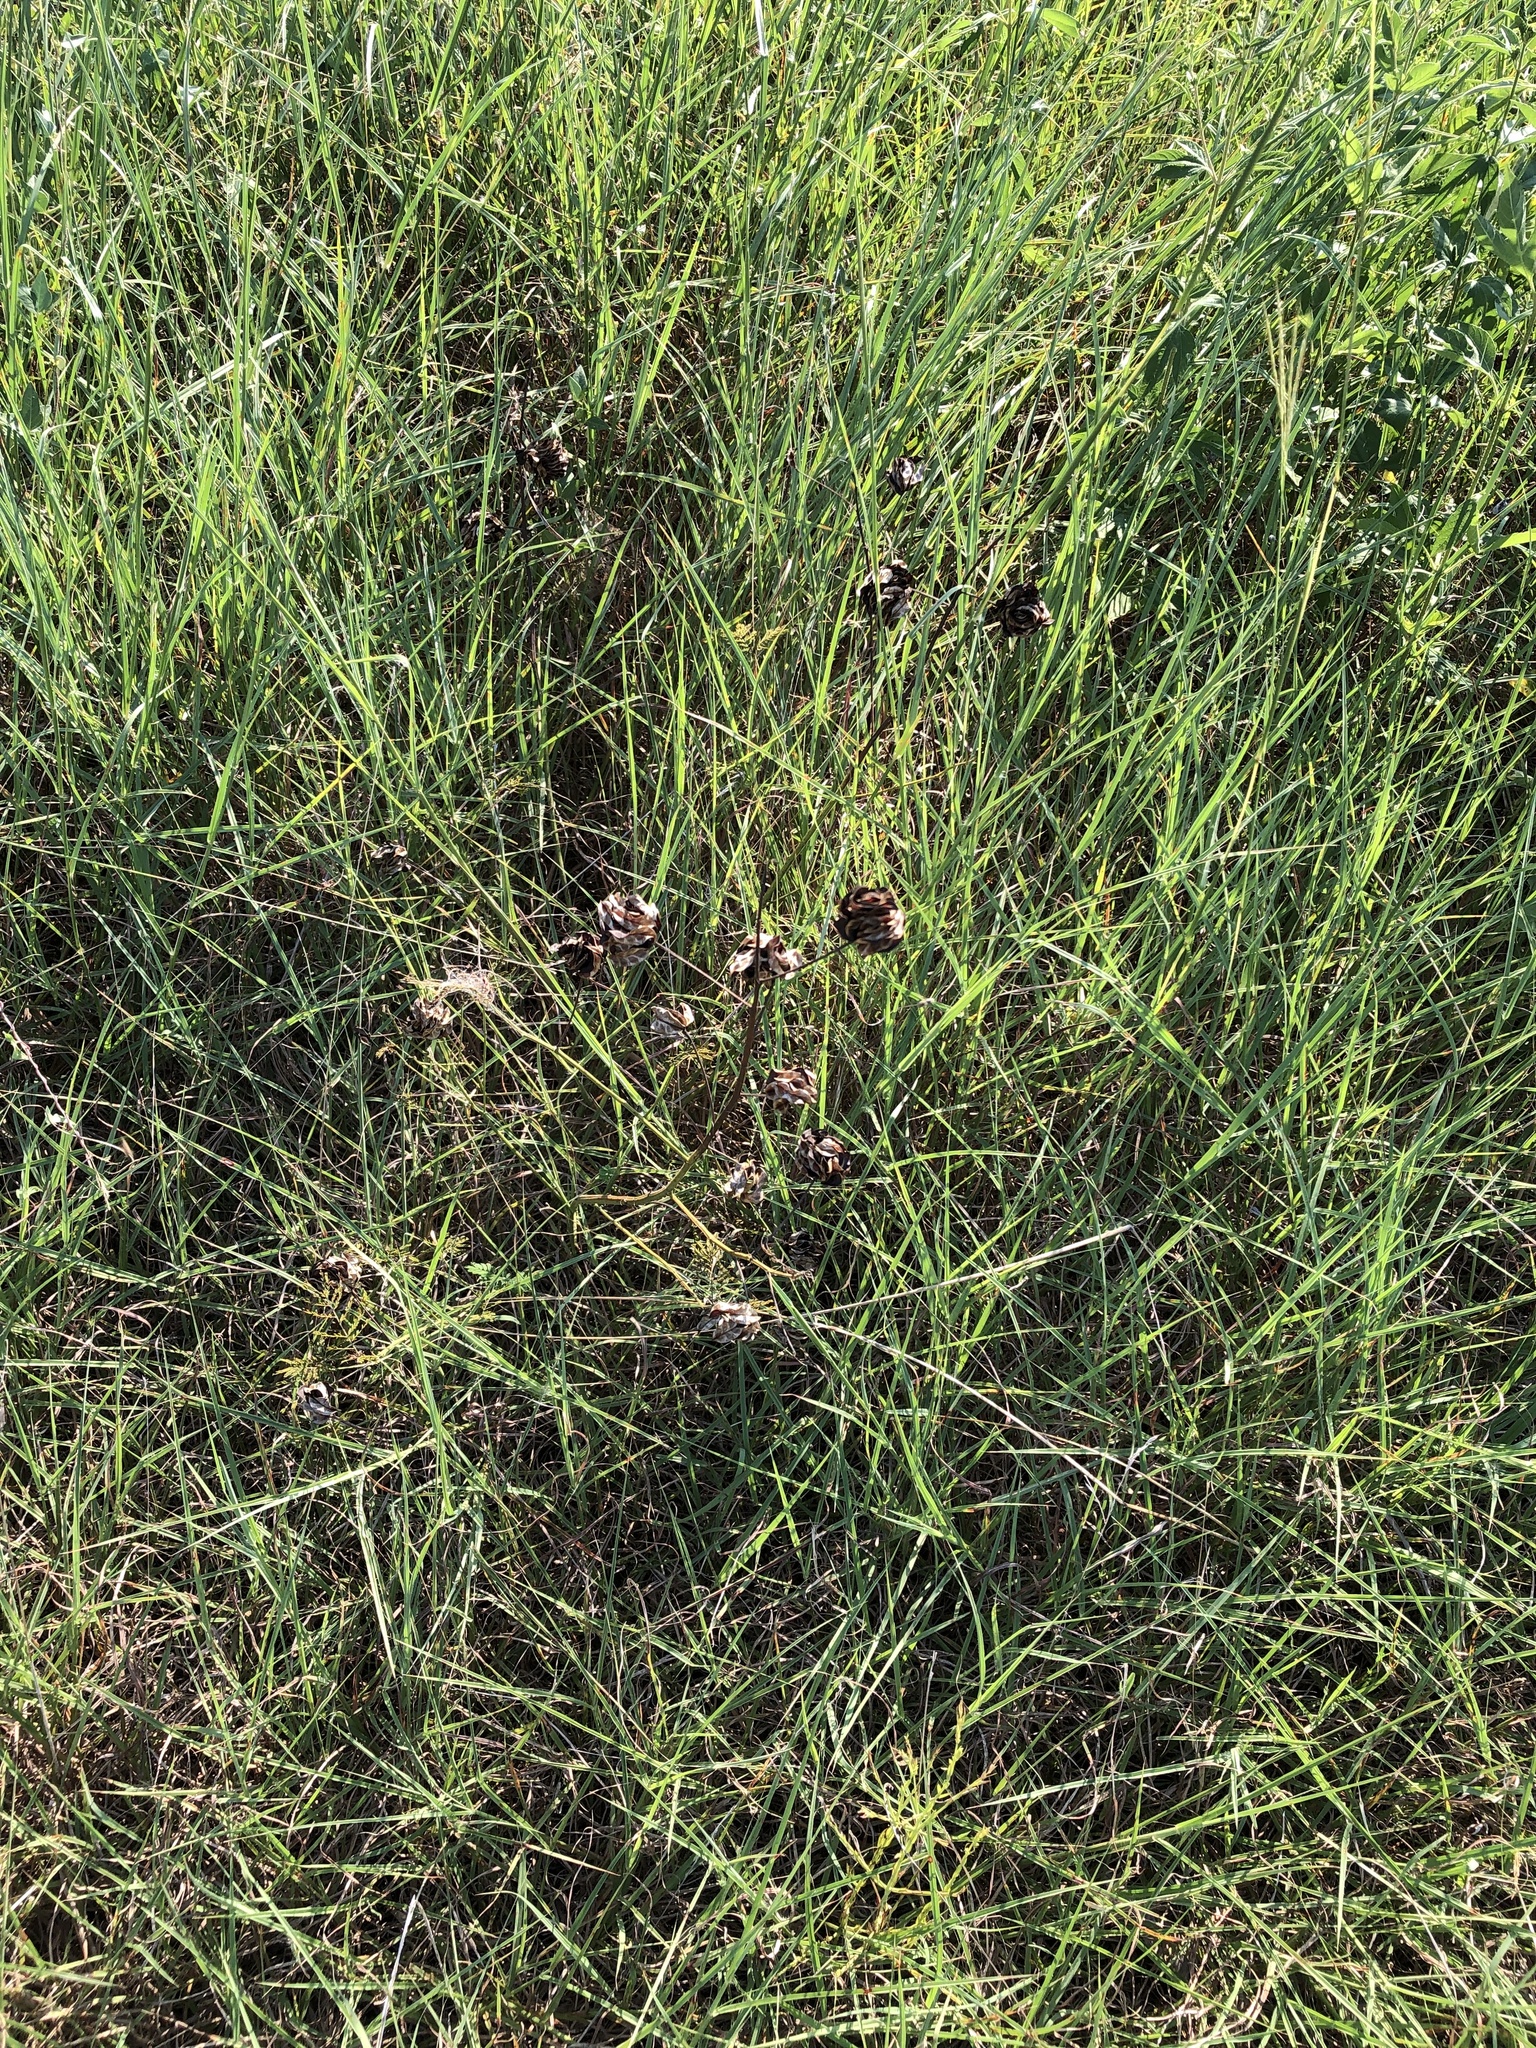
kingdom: Plantae
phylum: Tracheophyta
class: Magnoliopsida
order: Fabales
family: Fabaceae
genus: Desmanthus
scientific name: Desmanthus illinoensis
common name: Illinois bundle-flower
